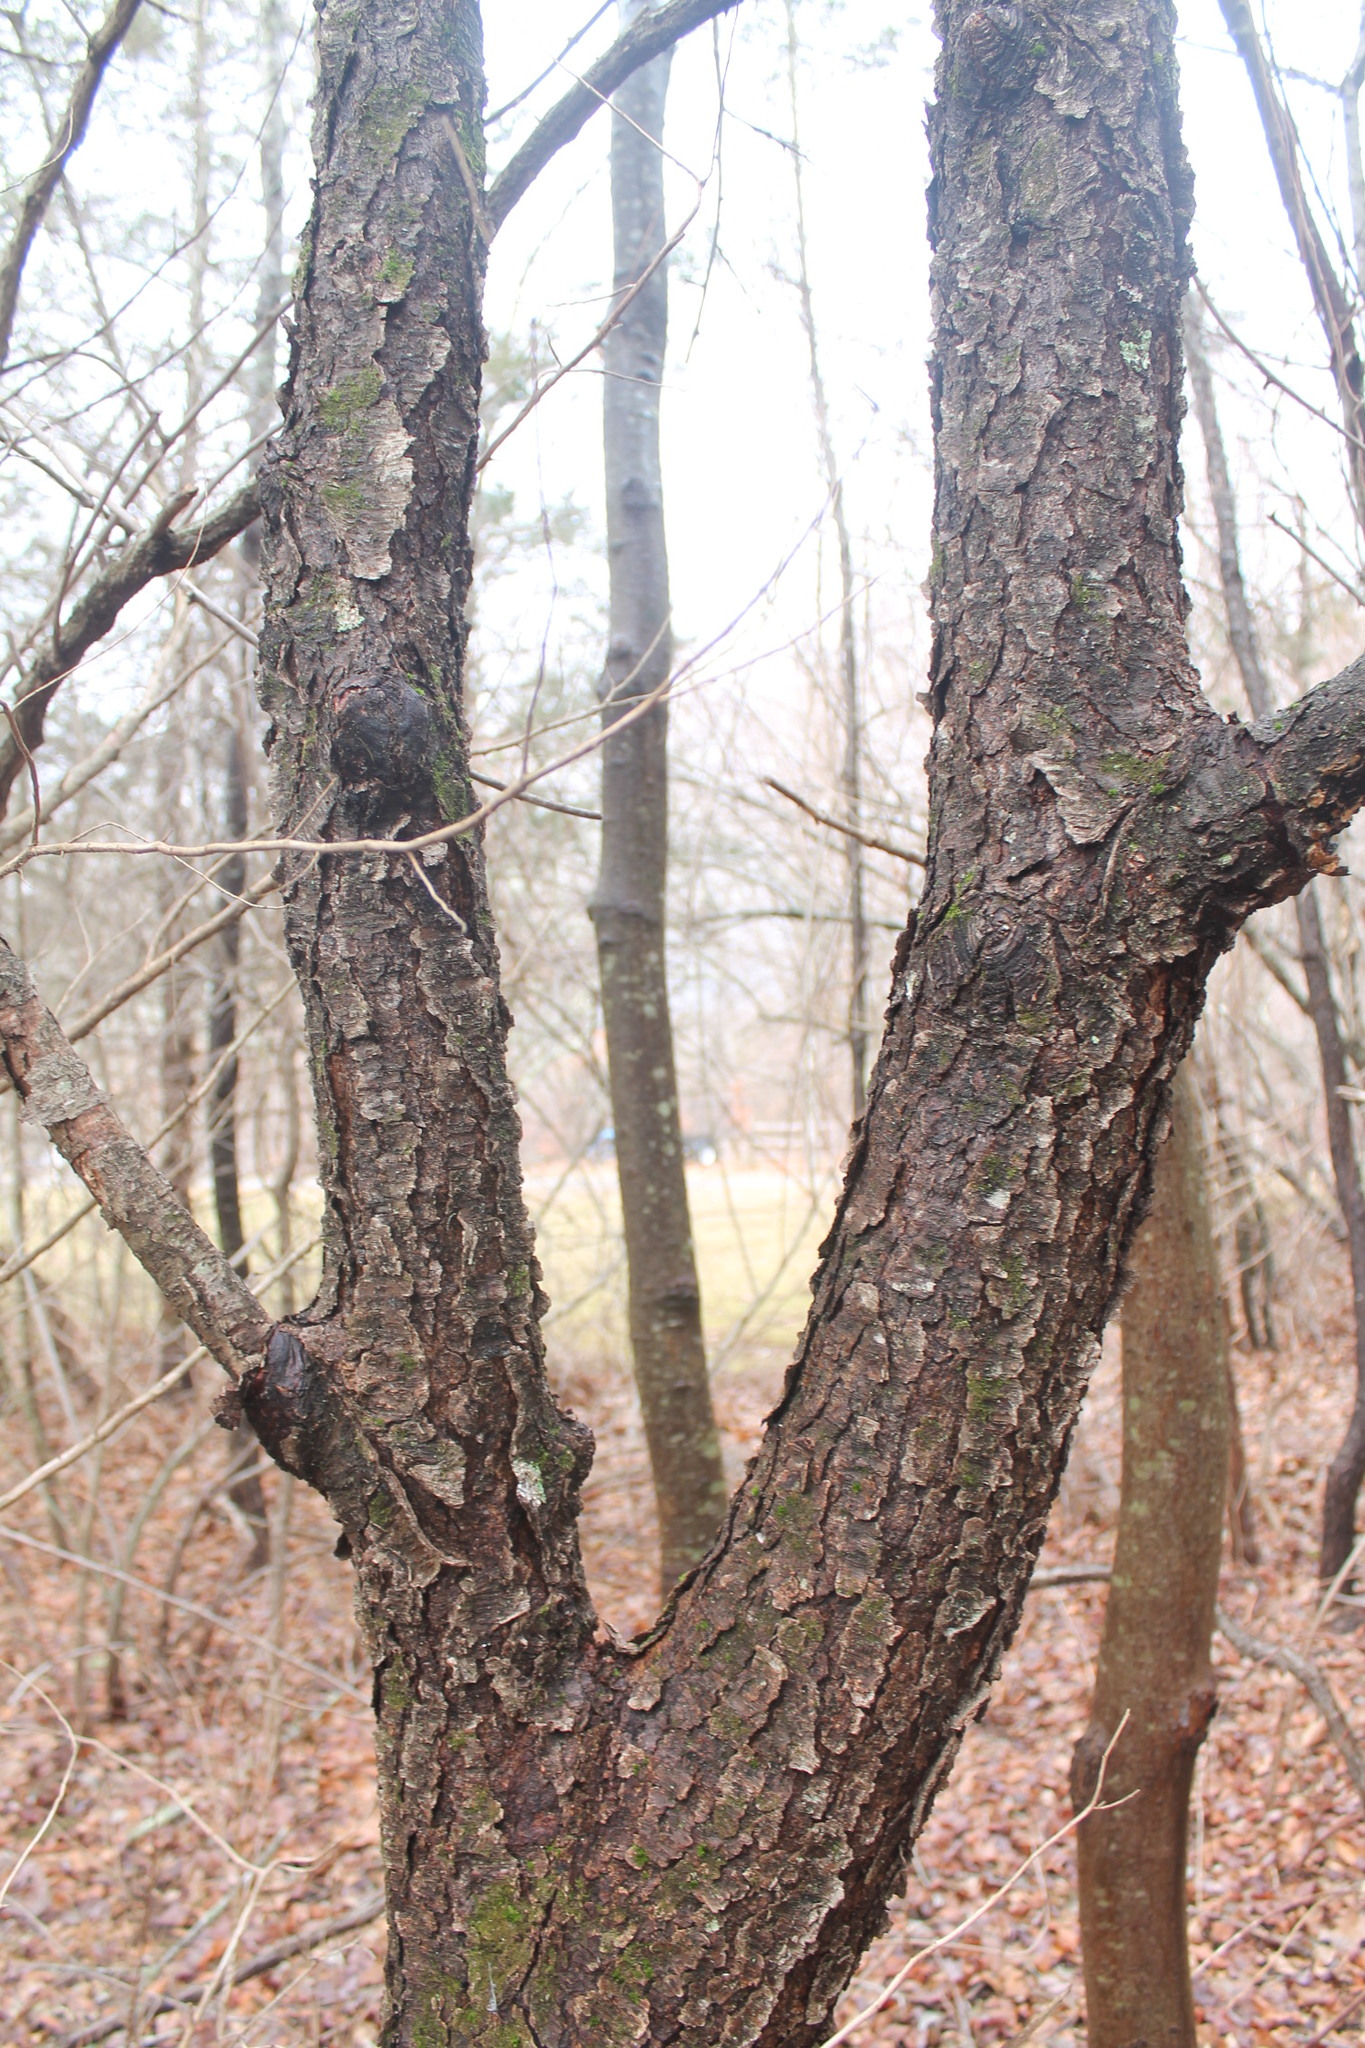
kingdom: Plantae
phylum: Tracheophyta
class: Magnoliopsida
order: Rosales
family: Rosaceae
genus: Prunus
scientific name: Prunus serotina
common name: Black cherry
